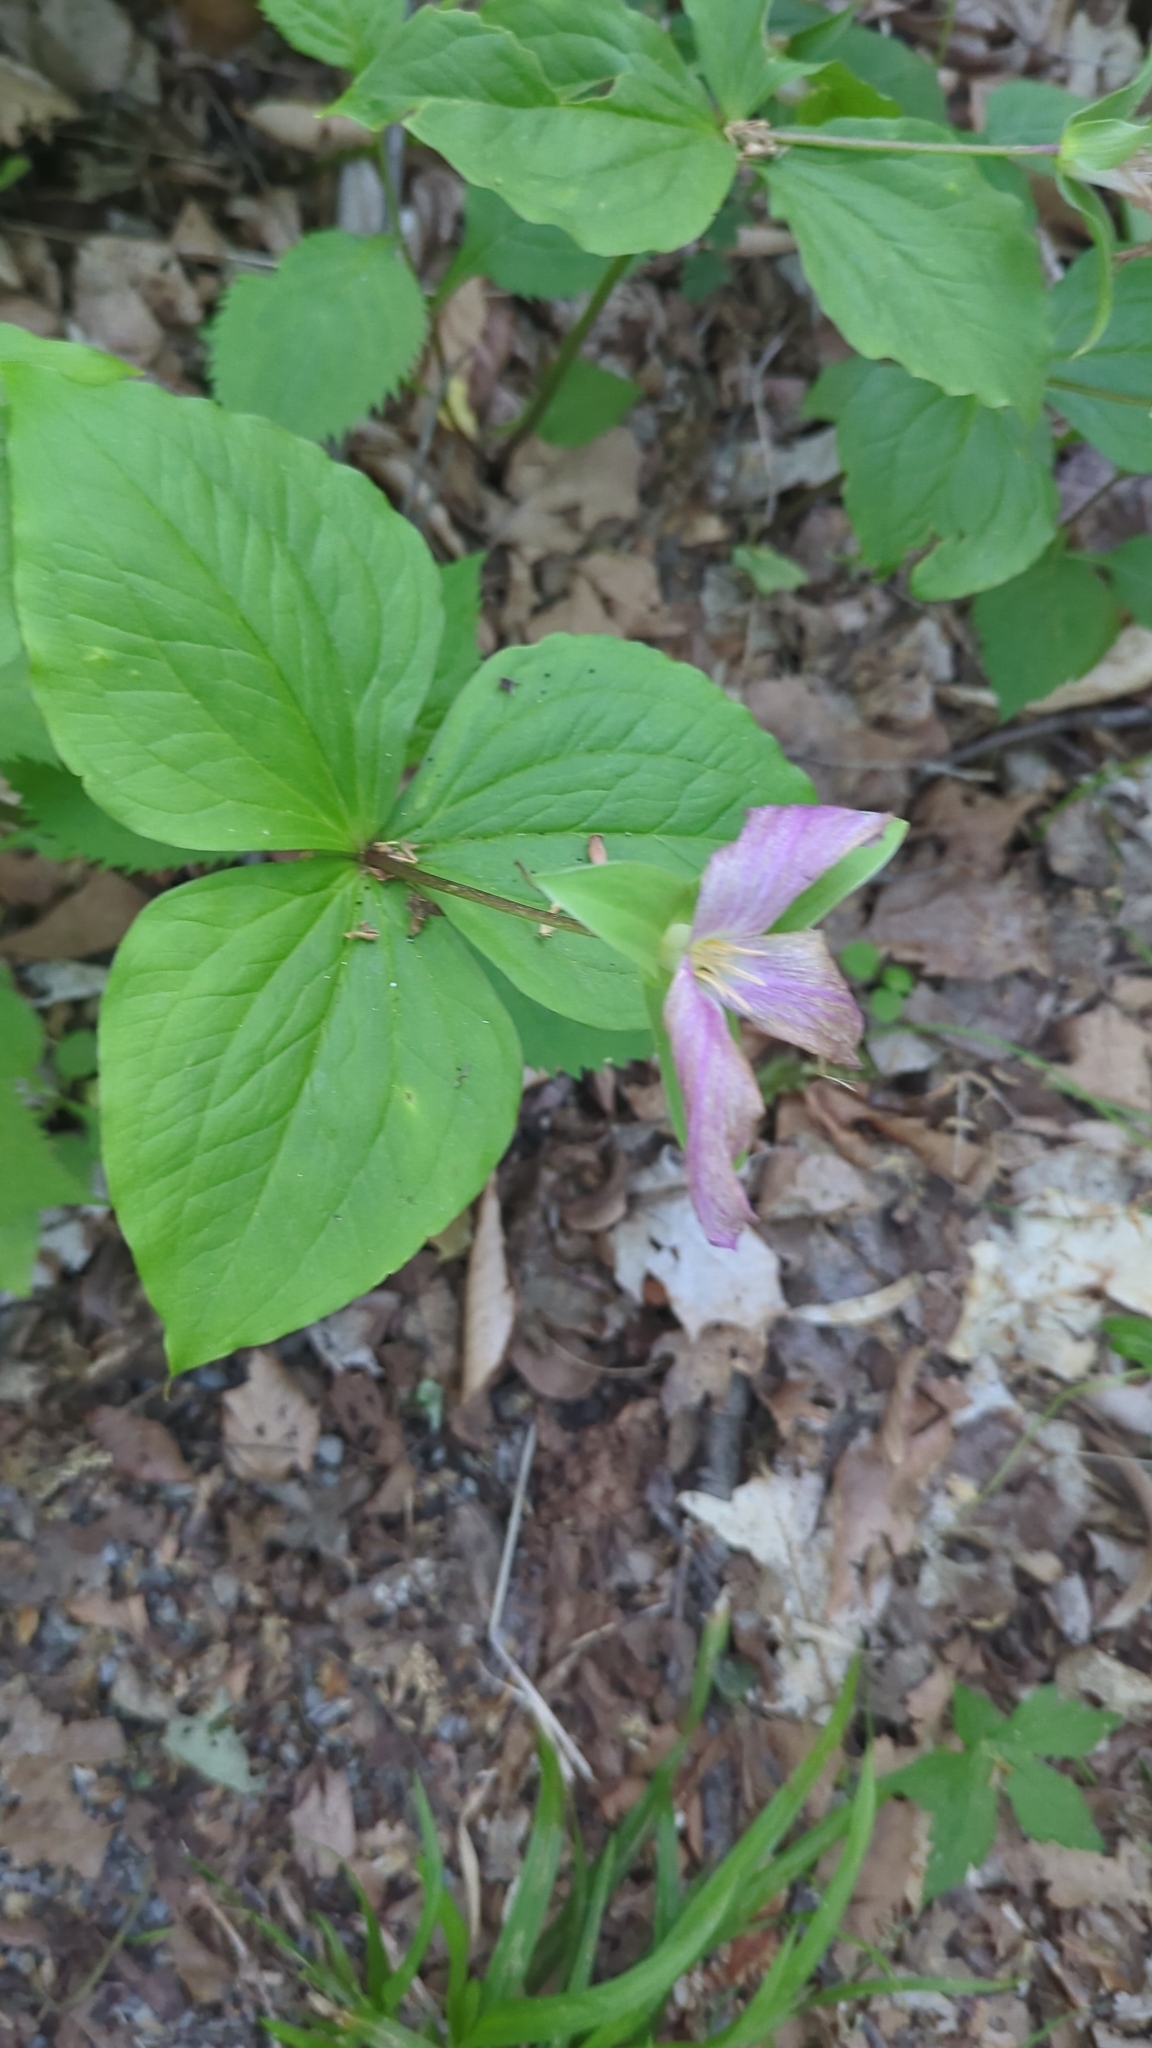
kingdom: Plantae
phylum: Tracheophyta
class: Liliopsida
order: Liliales
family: Melanthiaceae
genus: Trillium
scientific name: Trillium grandiflorum
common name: Great white trillium
